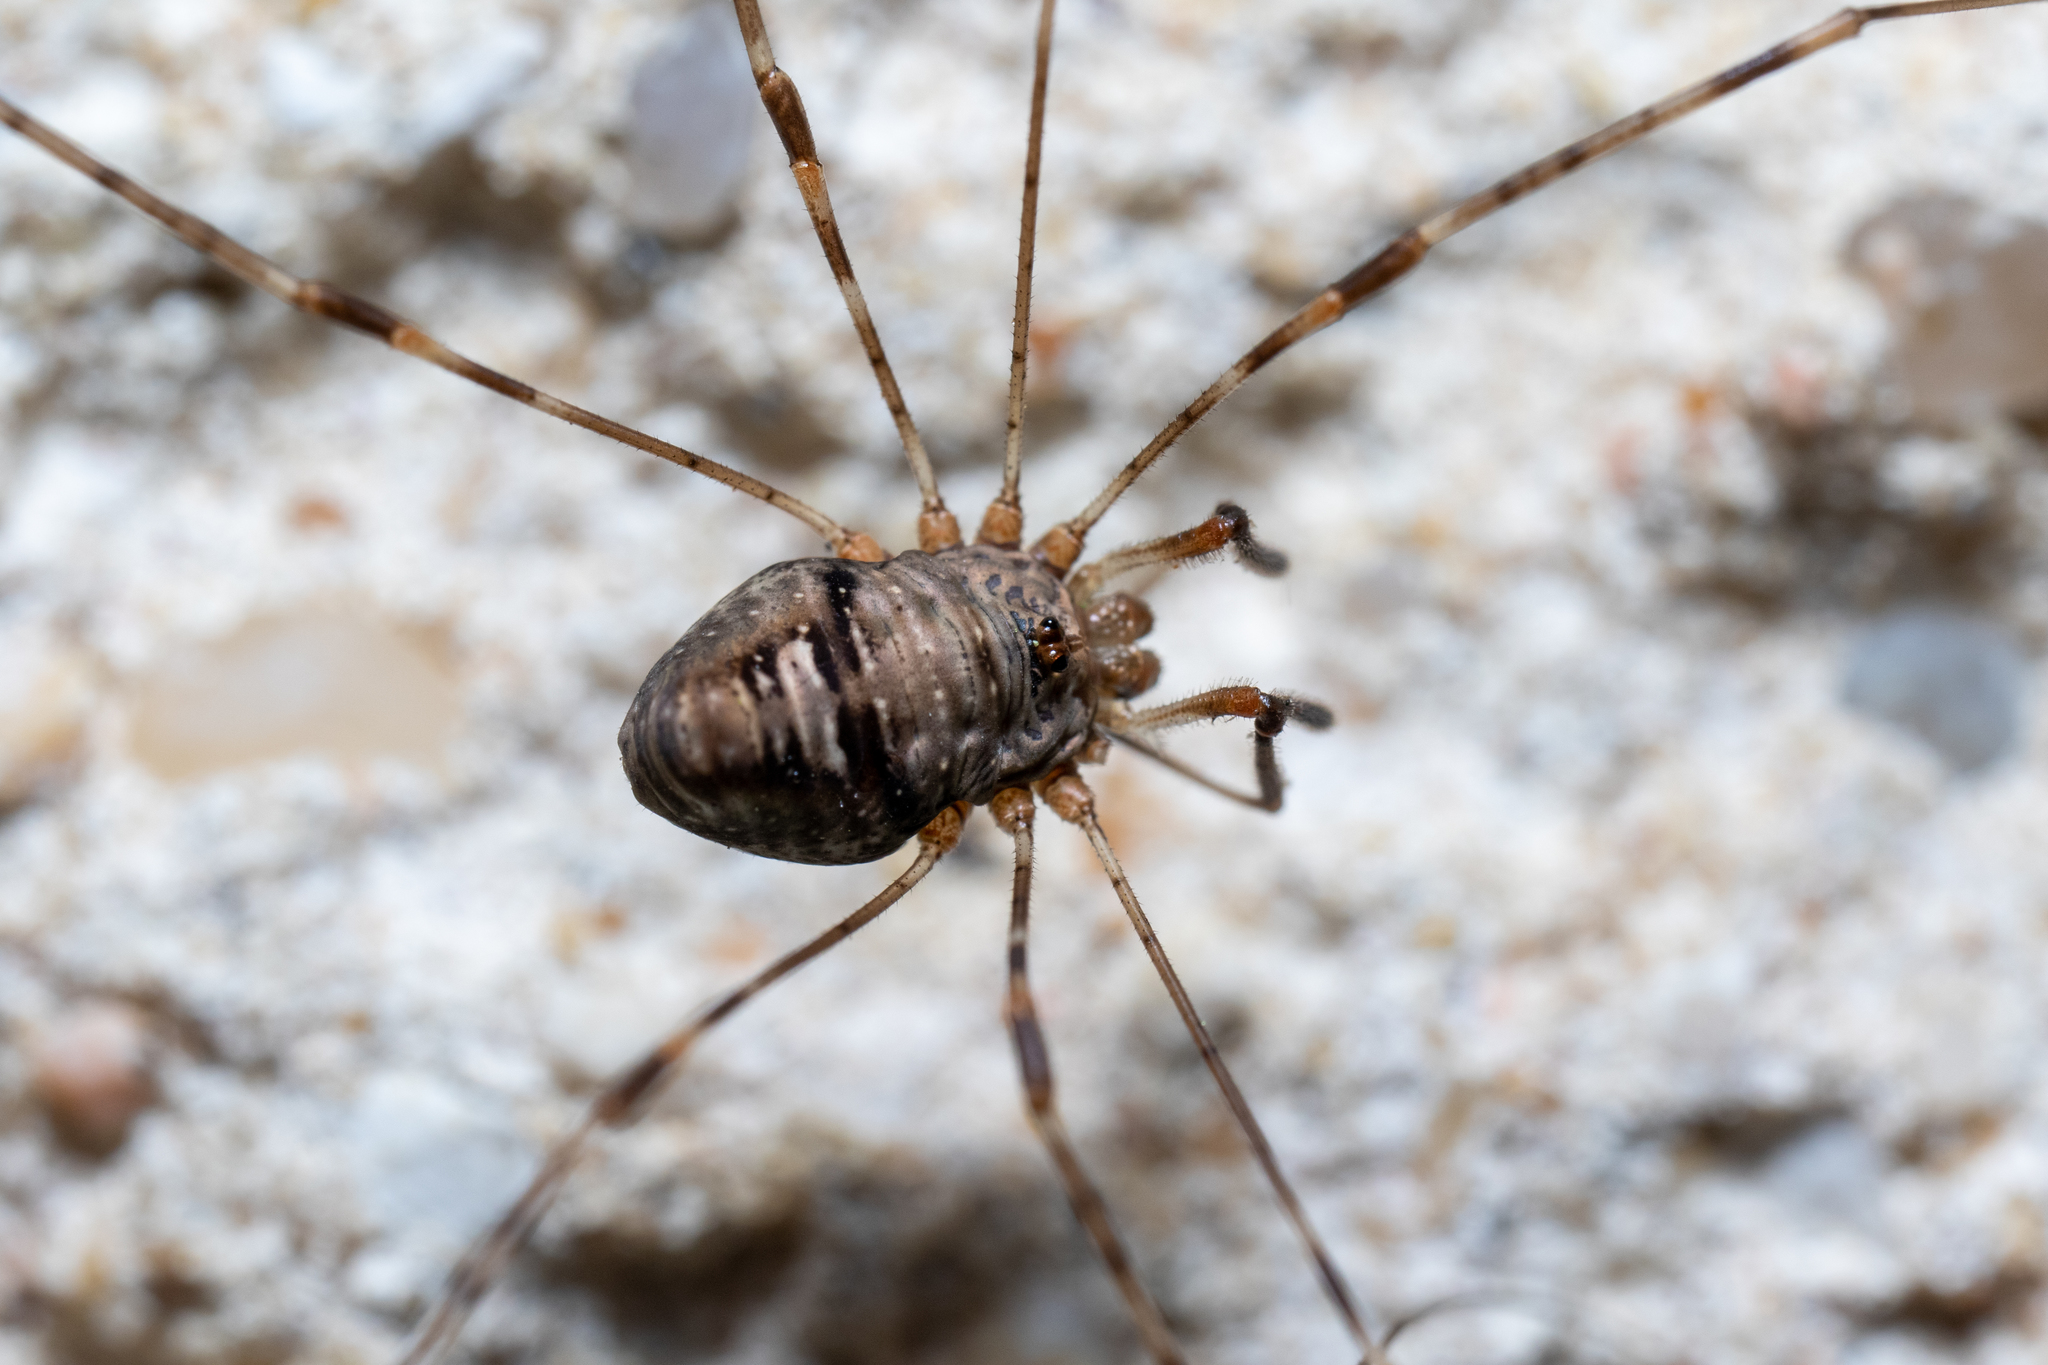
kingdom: Animalia
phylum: Arthropoda
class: Arachnida
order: Opiliones
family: Phalangiidae
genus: Dicranopalpus
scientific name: Dicranopalpus ramosus
